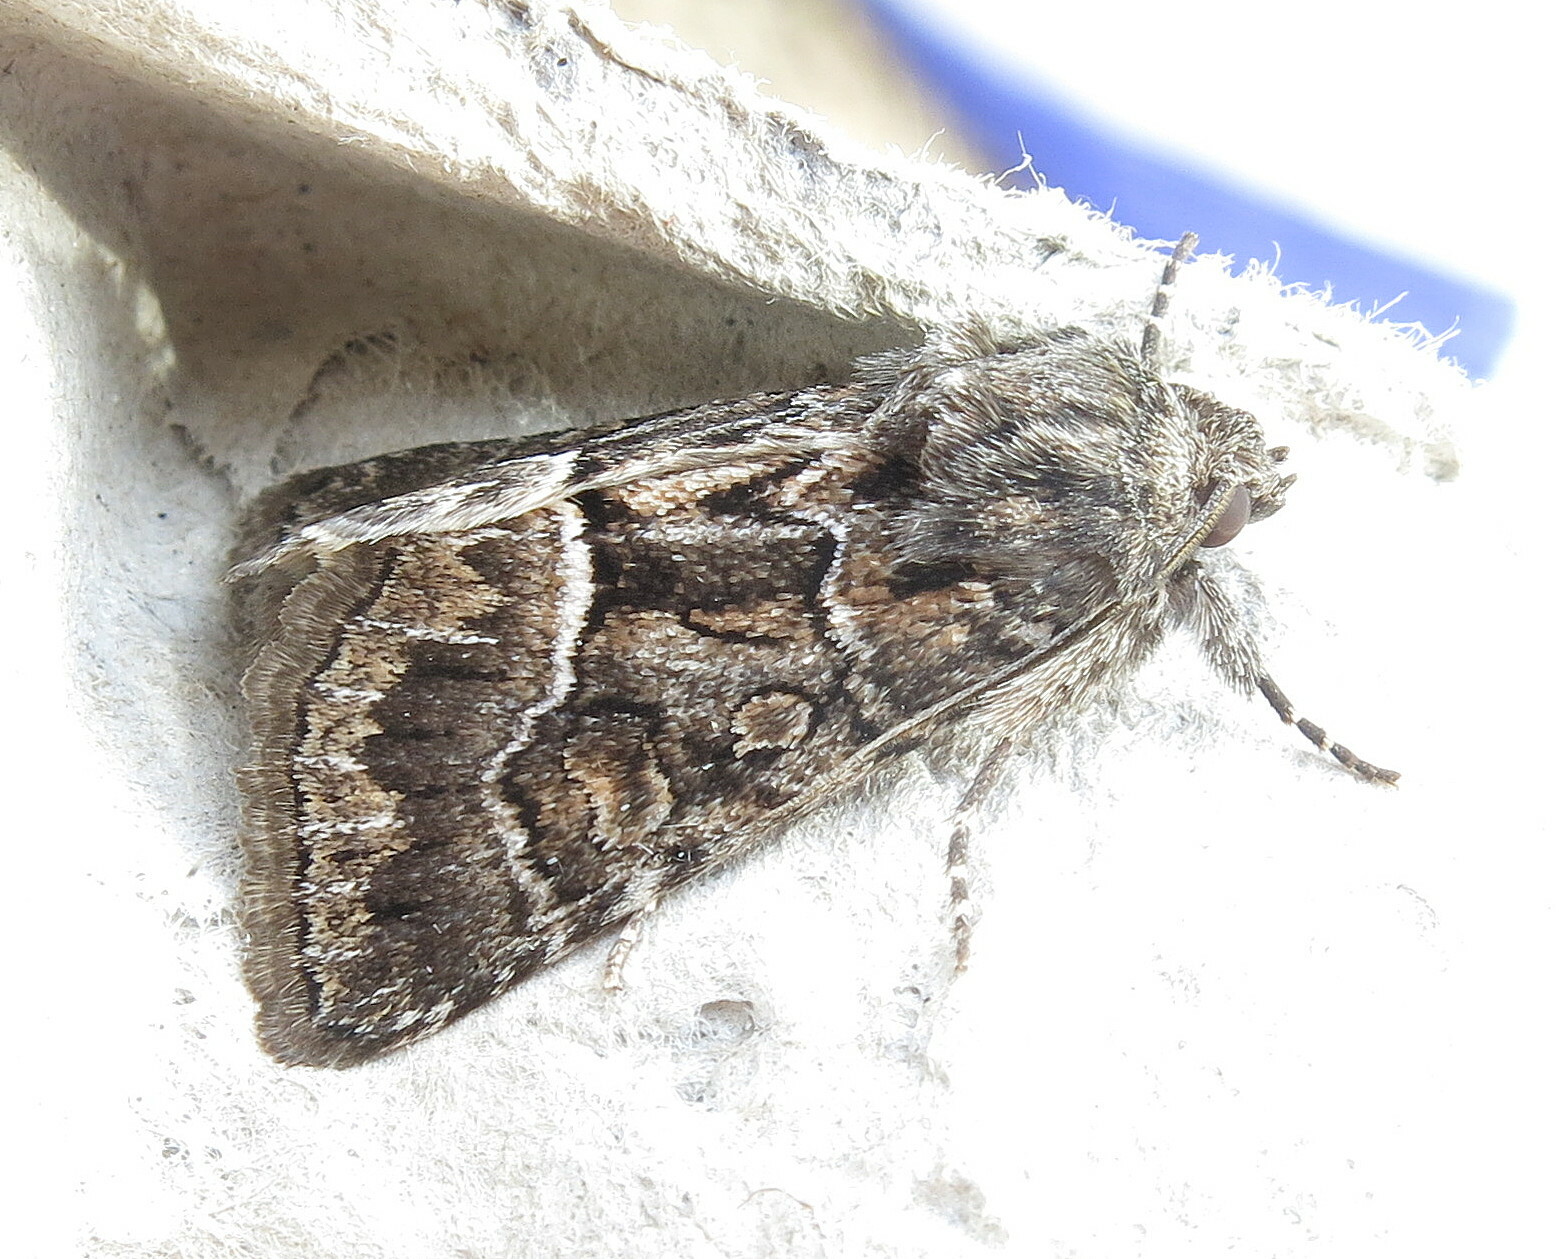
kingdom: Animalia
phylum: Arthropoda
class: Insecta
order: Lepidoptera
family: Noctuidae
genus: Thalpophila
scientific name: Thalpophila matura
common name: Straw underwing
